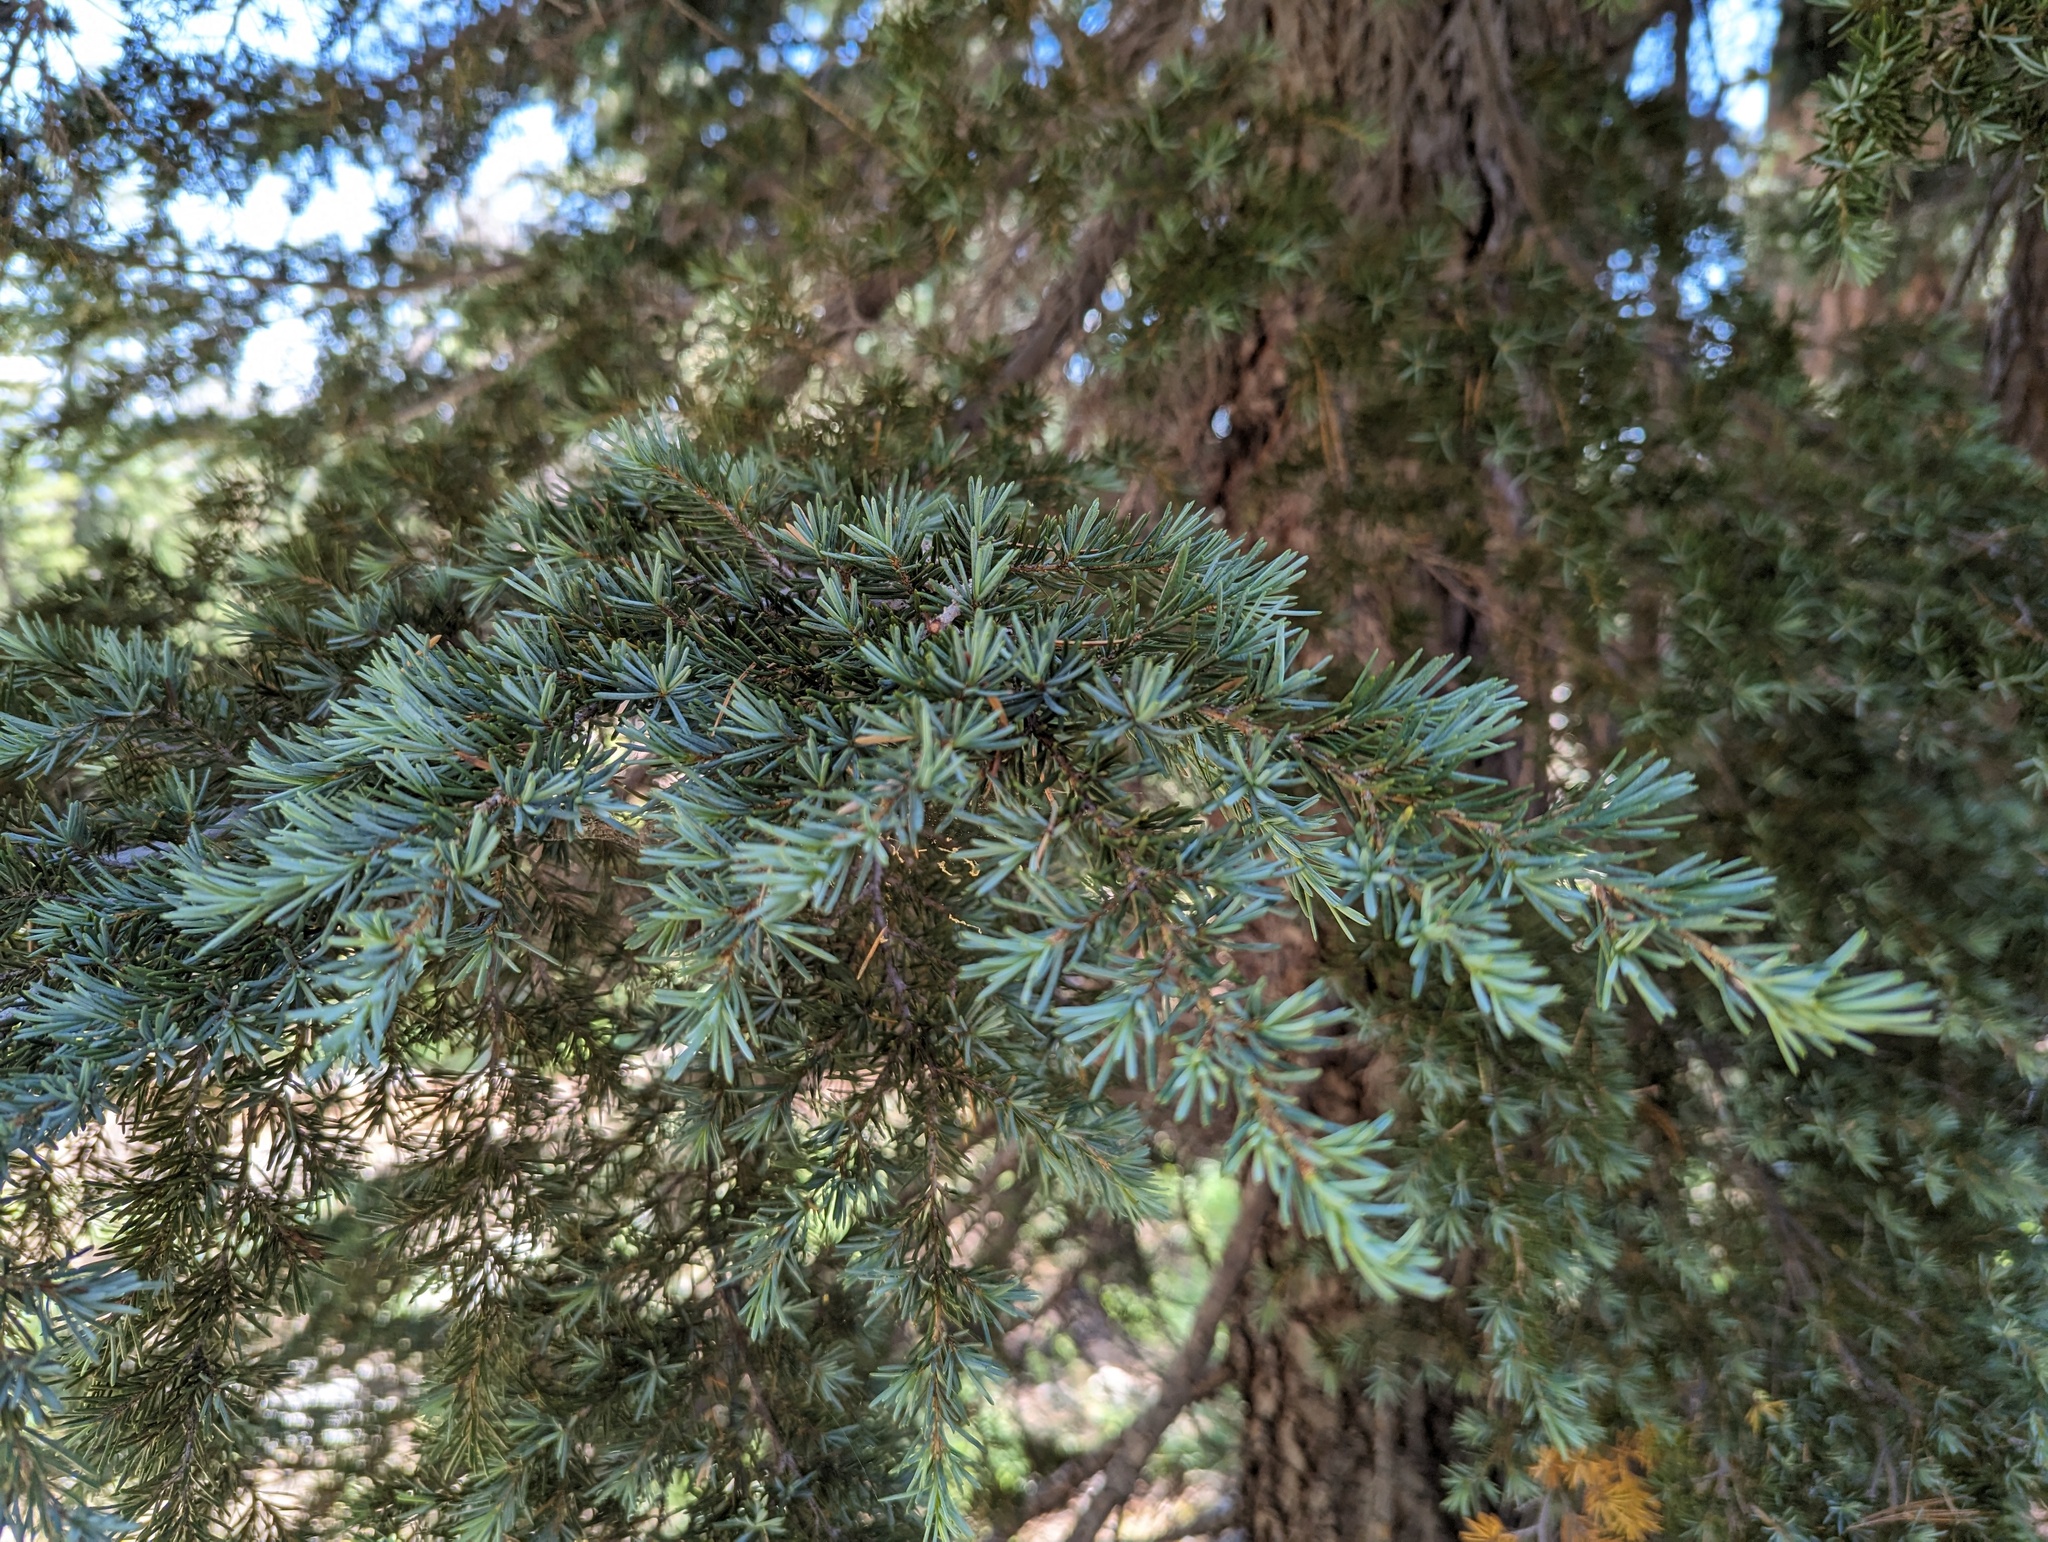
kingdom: Plantae
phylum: Tracheophyta
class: Pinopsida
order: Pinales
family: Pinaceae
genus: Tsuga
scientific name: Tsuga mertensiana
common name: Mountain hemlock
